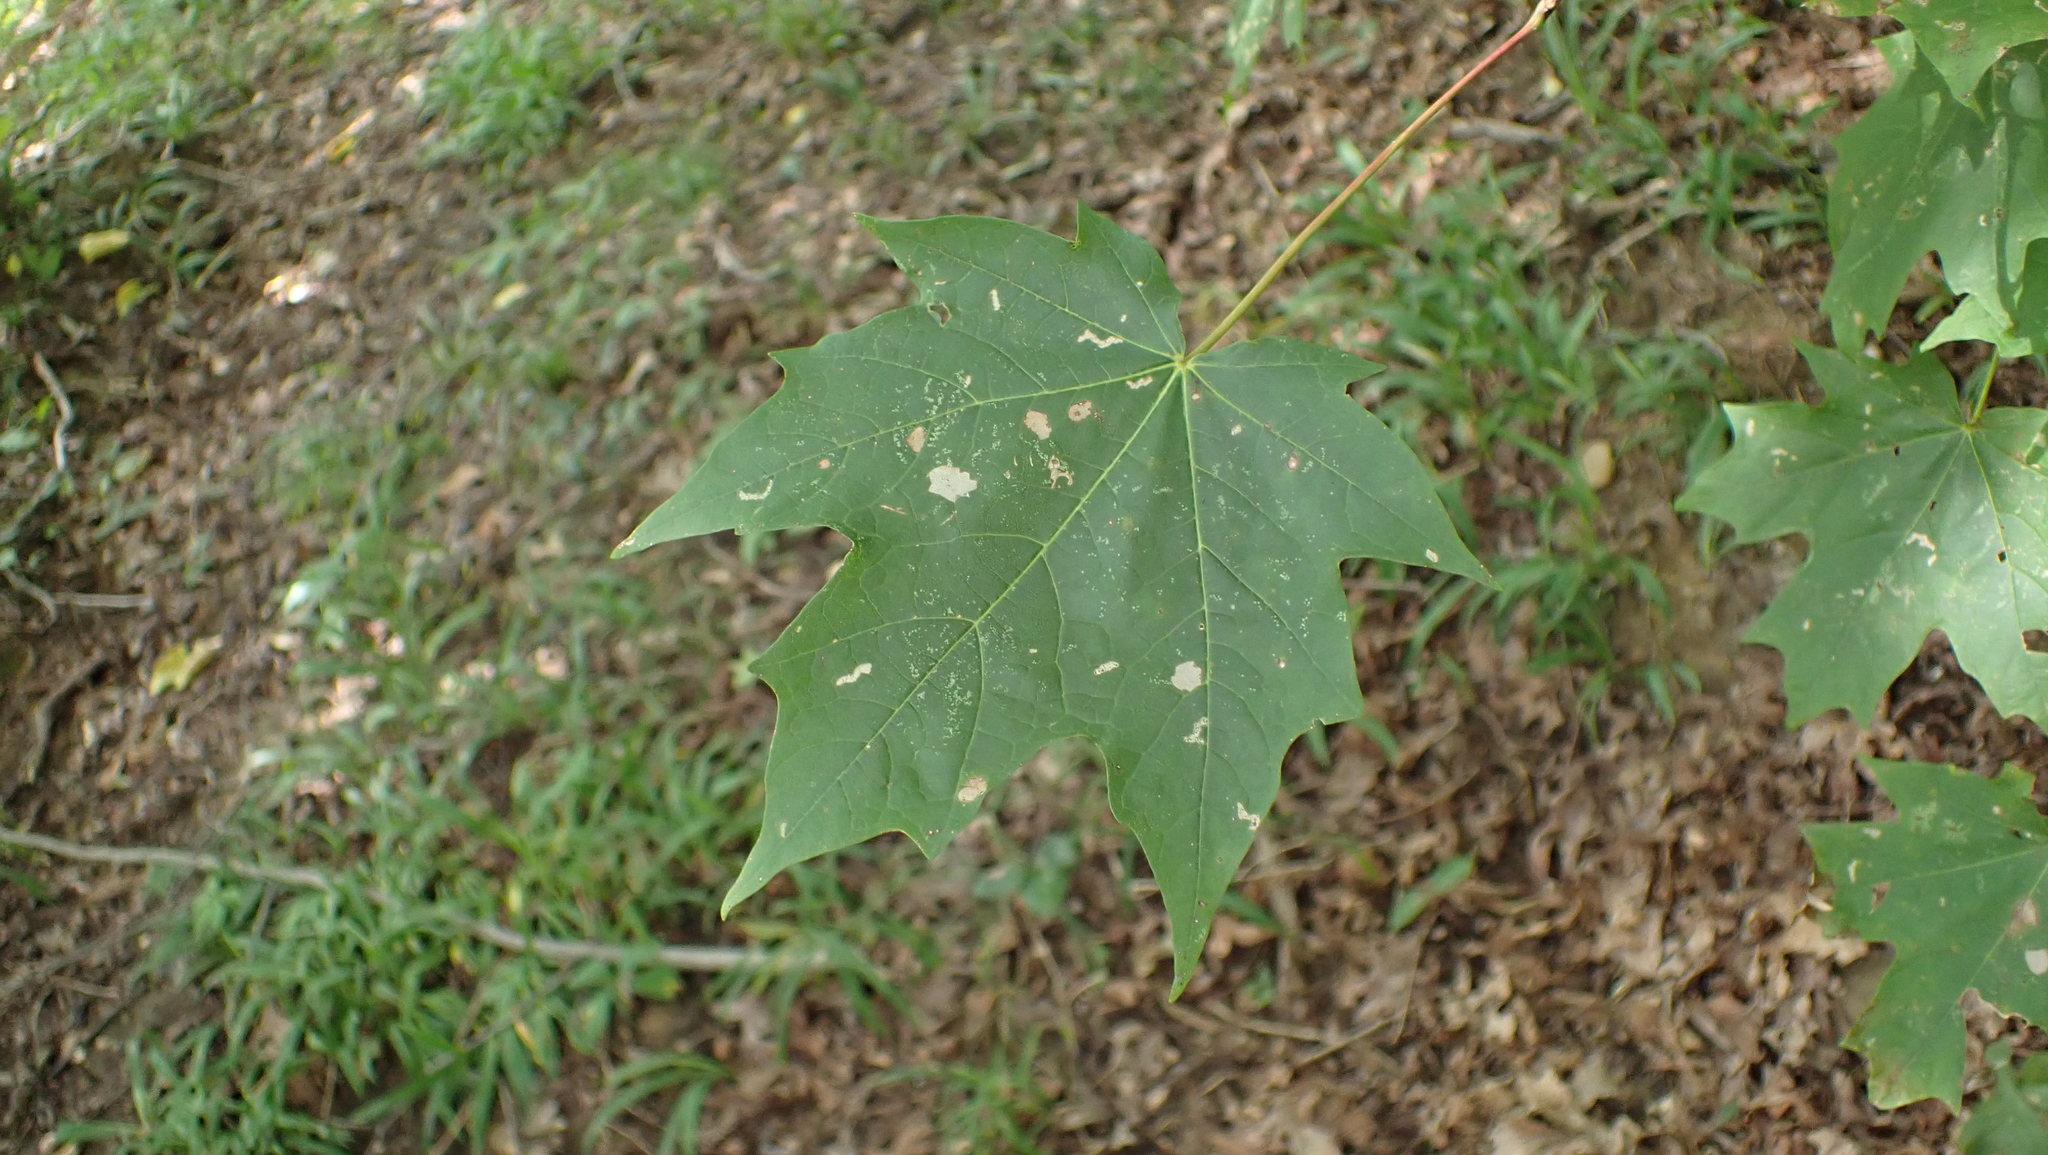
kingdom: Plantae
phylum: Tracheophyta
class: Magnoliopsida
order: Sapindales
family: Sapindaceae
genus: Acer
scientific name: Acer saccharum
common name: Sugar maple
